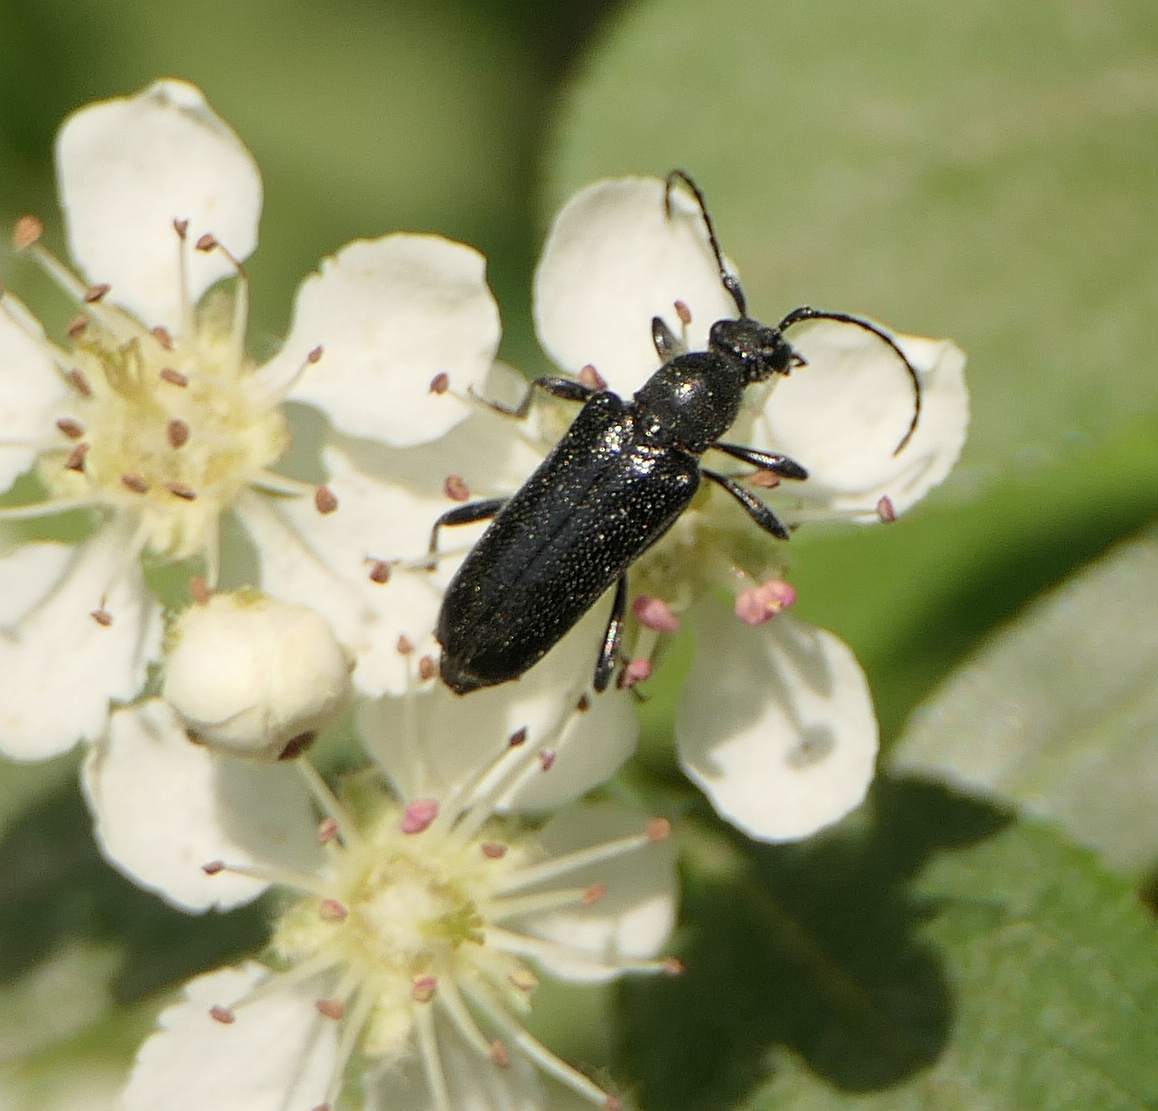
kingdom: Animalia
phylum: Arthropoda
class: Insecta
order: Coleoptera
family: Cerambycidae
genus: Anoplodera
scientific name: Anoplodera pubera
